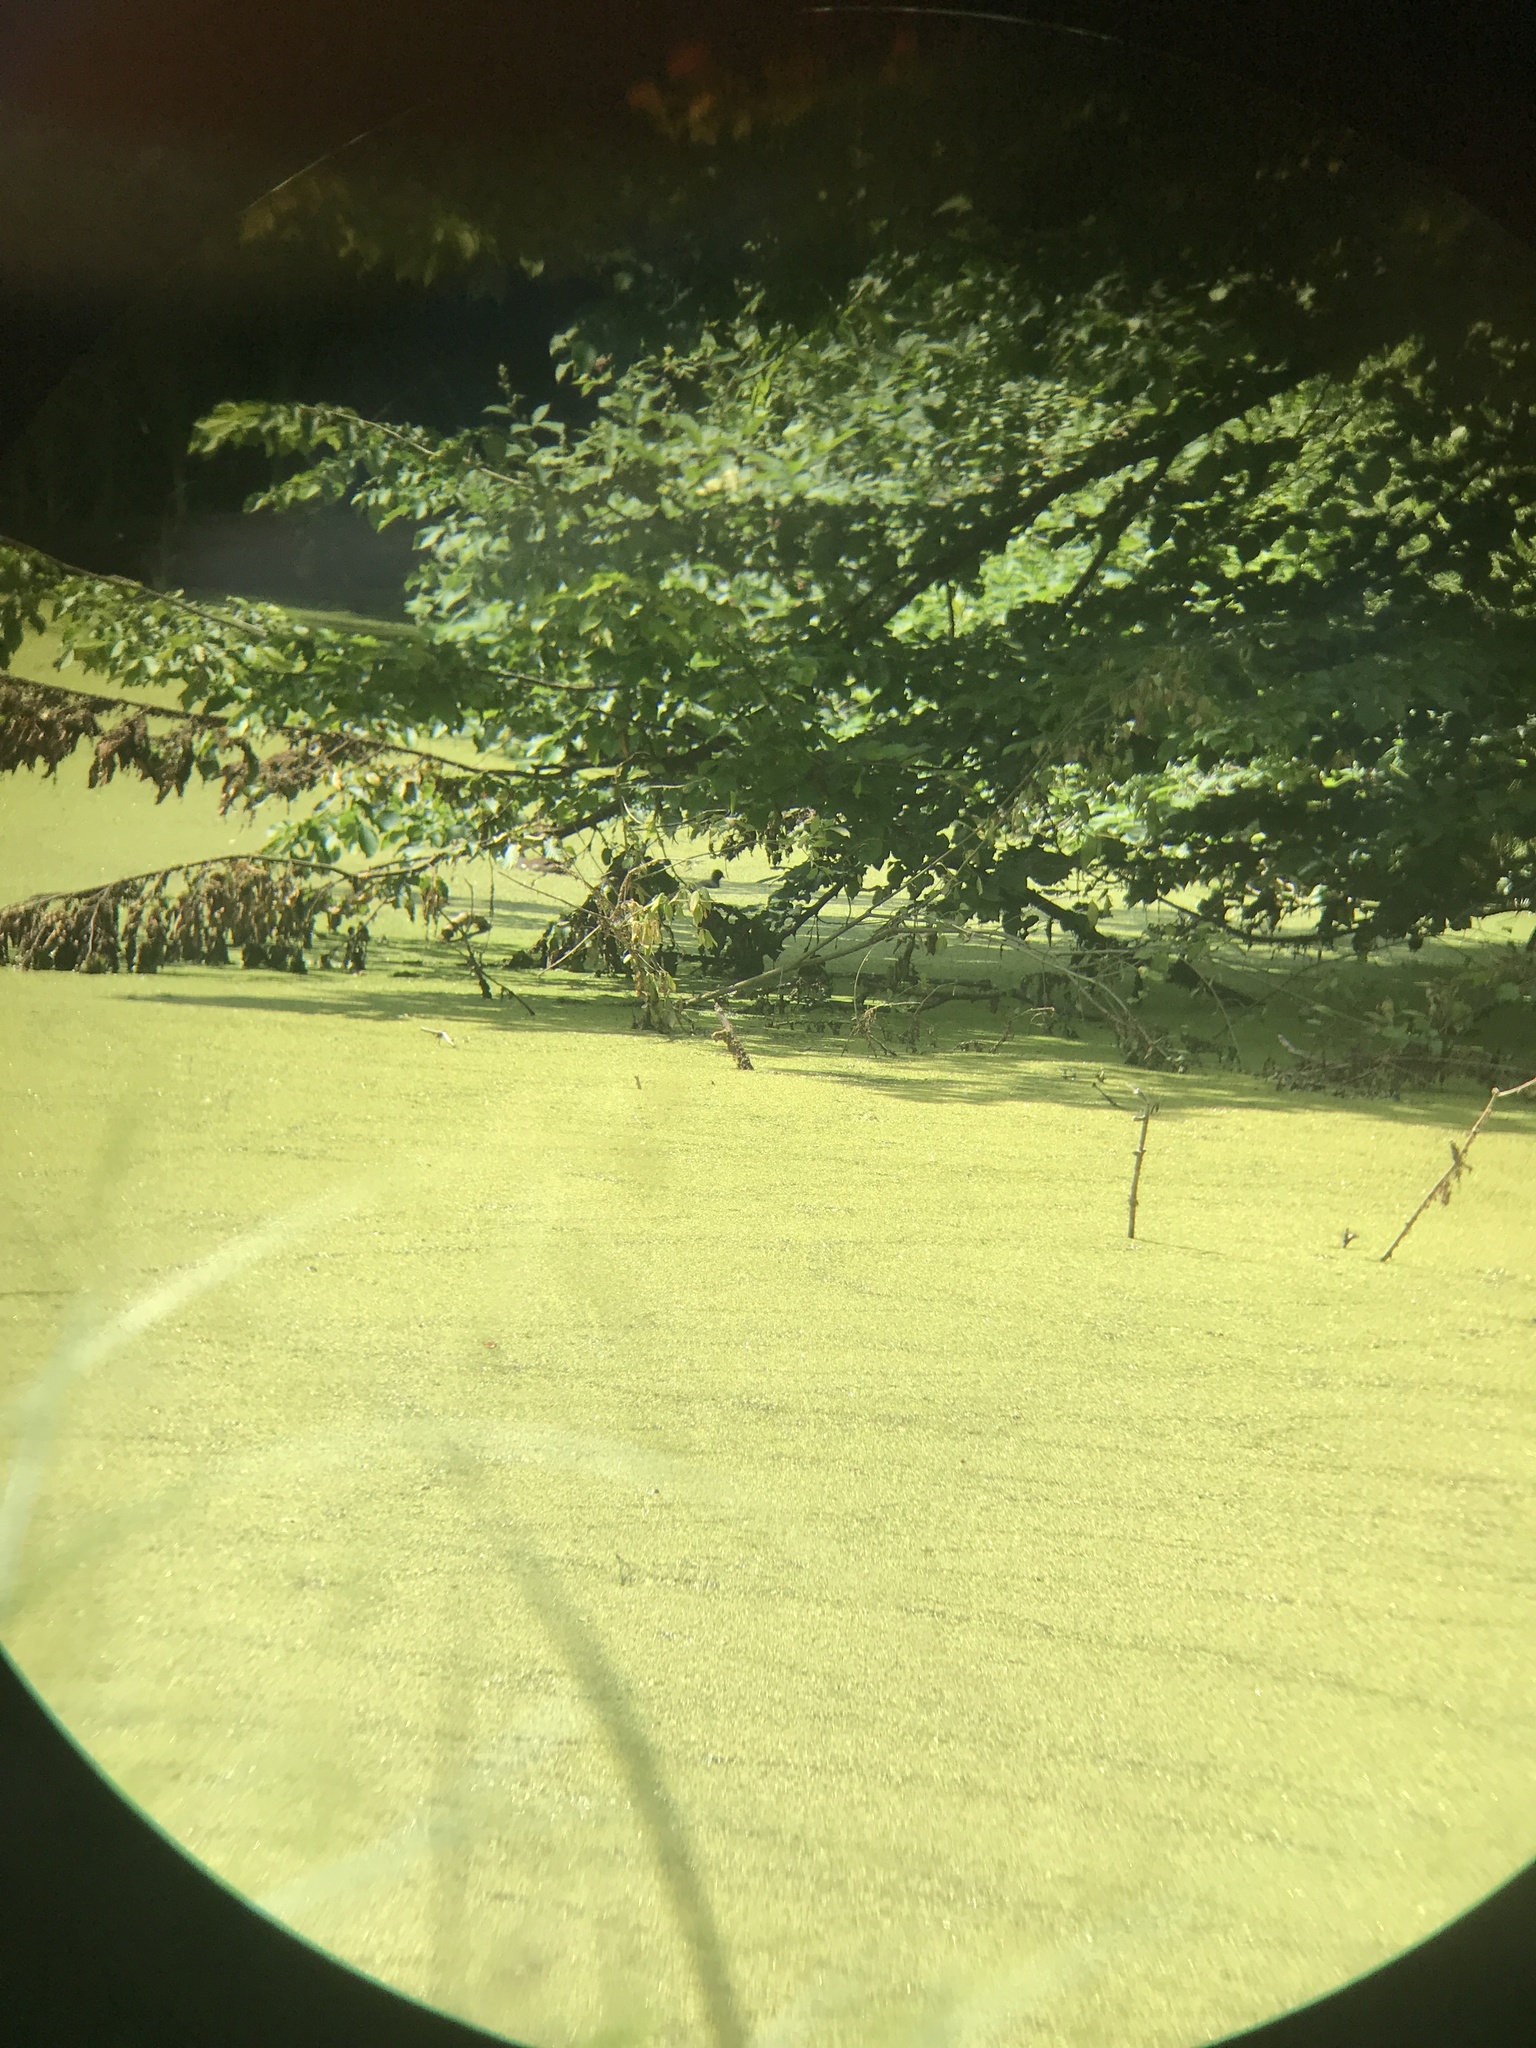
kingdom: Animalia
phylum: Chordata
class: Aves
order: Gruiformes
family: Rallidae
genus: Gallinula
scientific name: Gallinula chloropus
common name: Common moorhen
